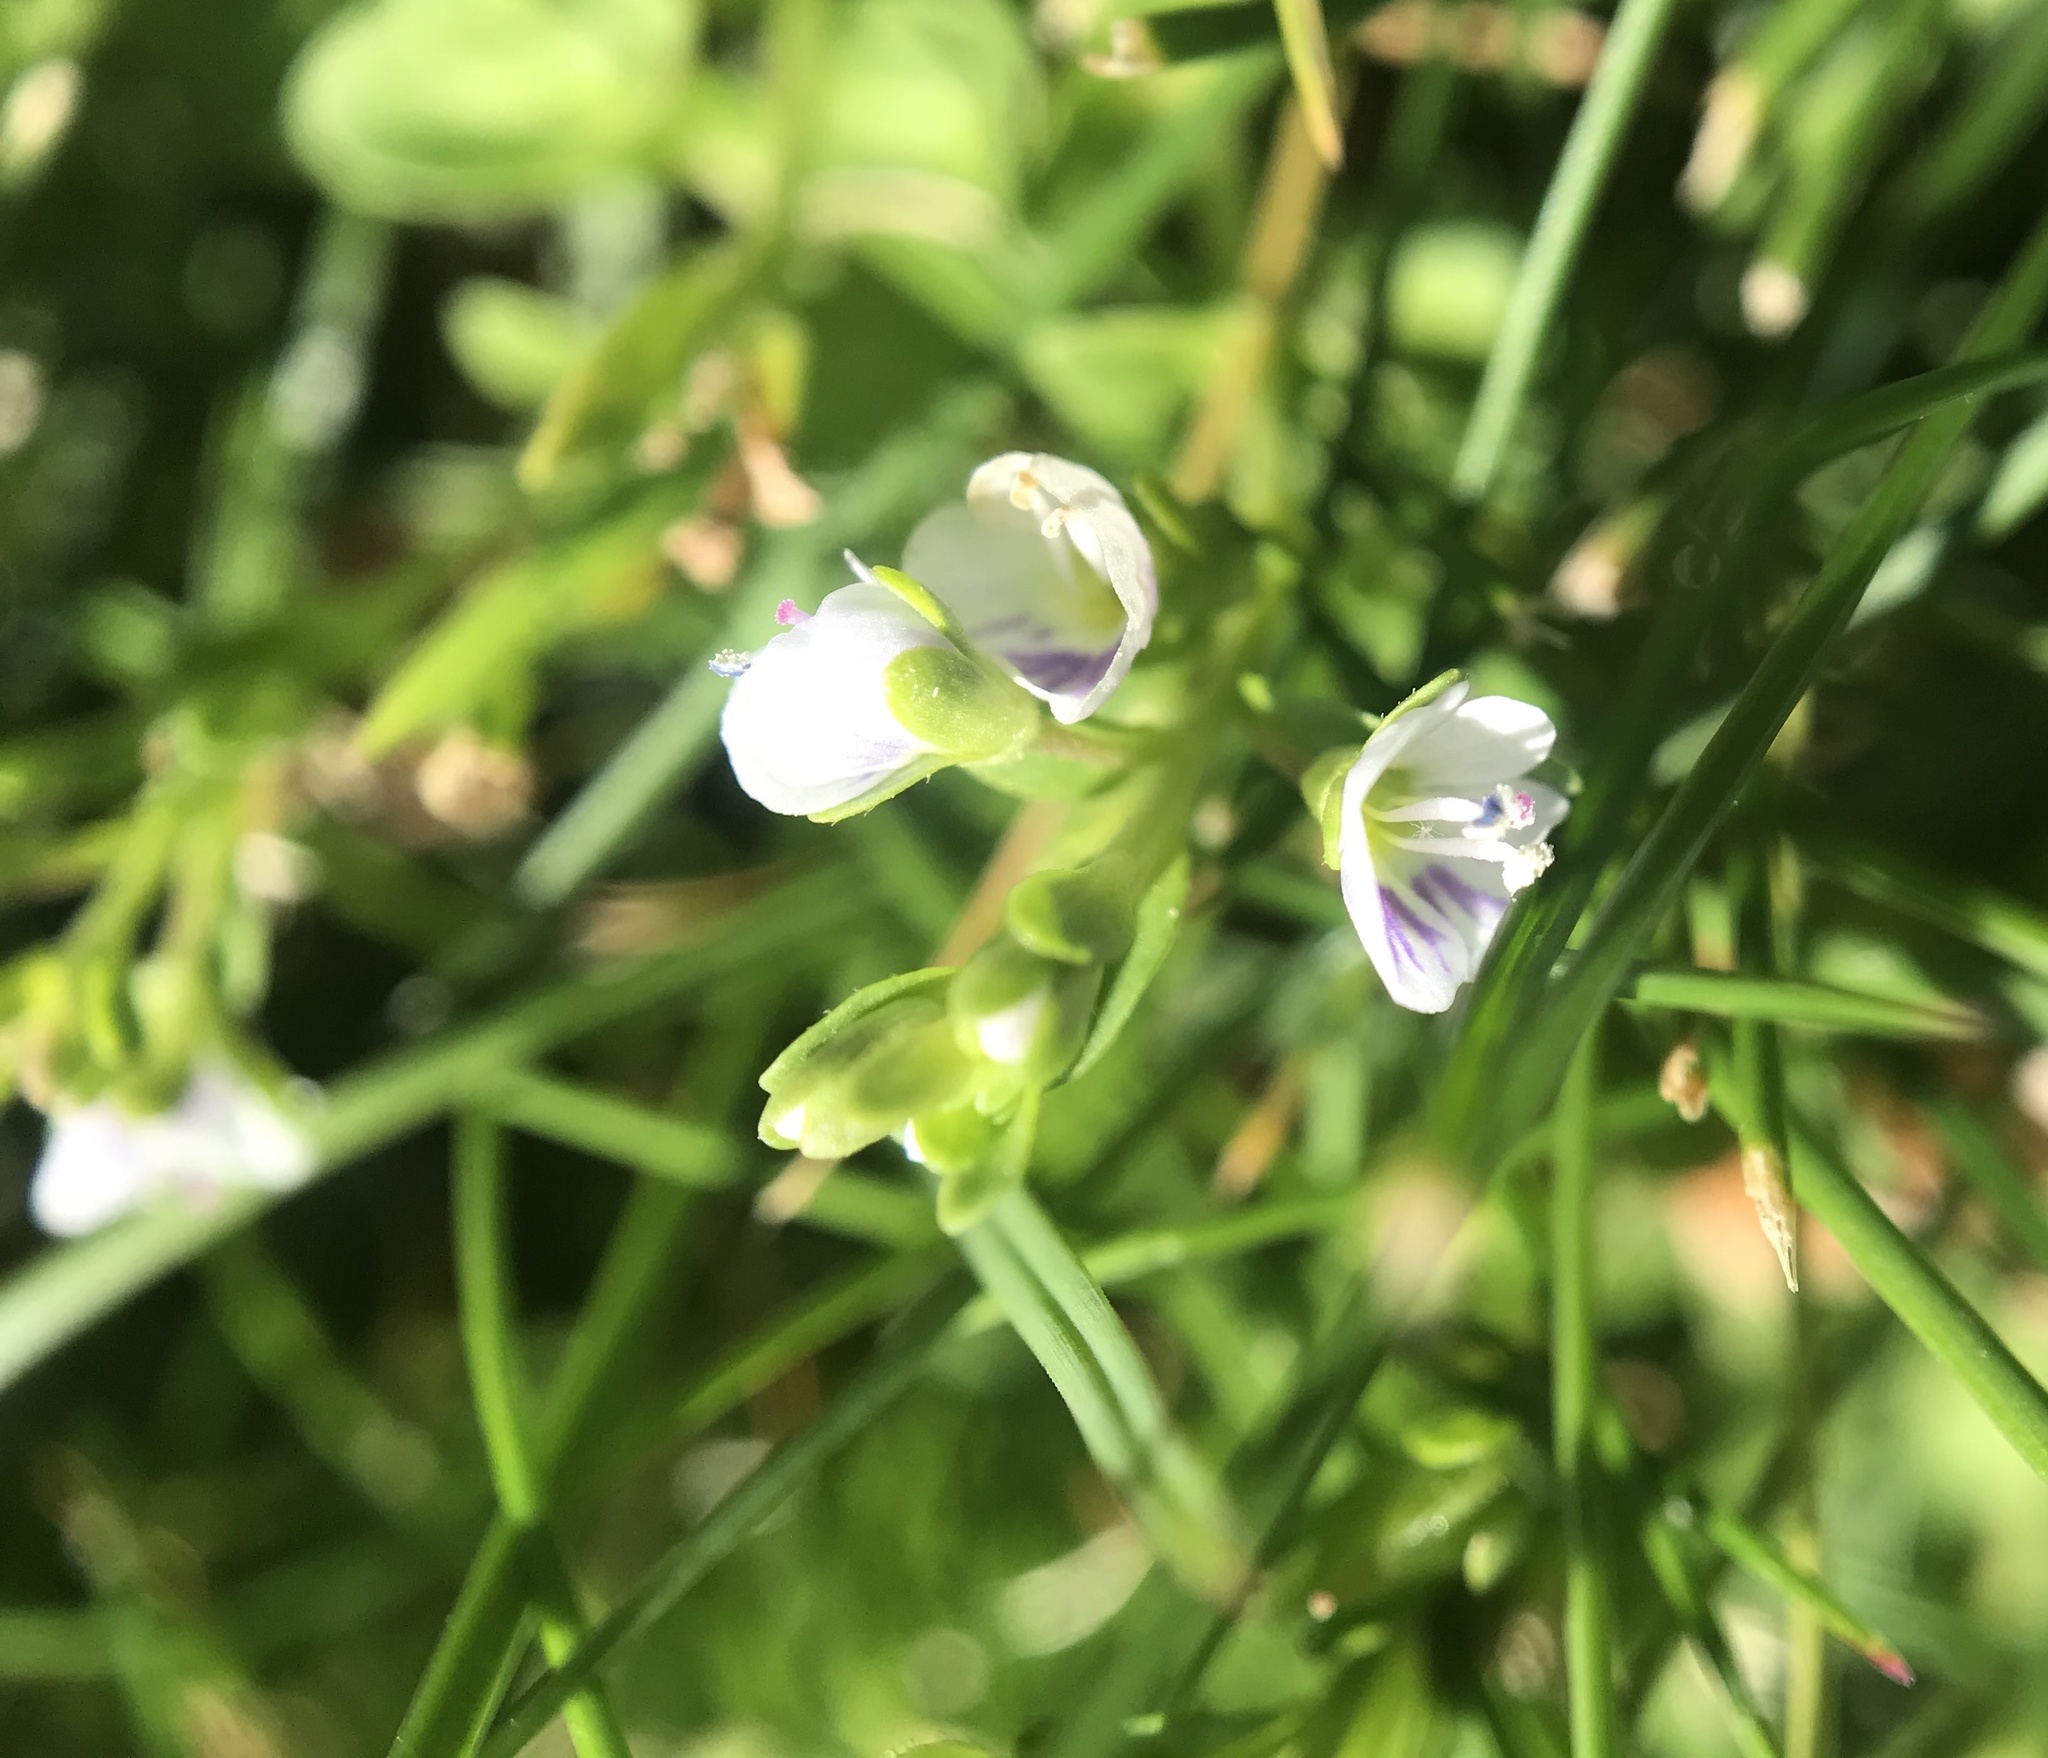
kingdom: Plantae
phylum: Tracheophyta
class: Magnoliopsida
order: Lamiales
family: Plantaginaceae
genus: Veronica
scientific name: Veronica serpyllifolia
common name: Thyme-leaved speedwell
